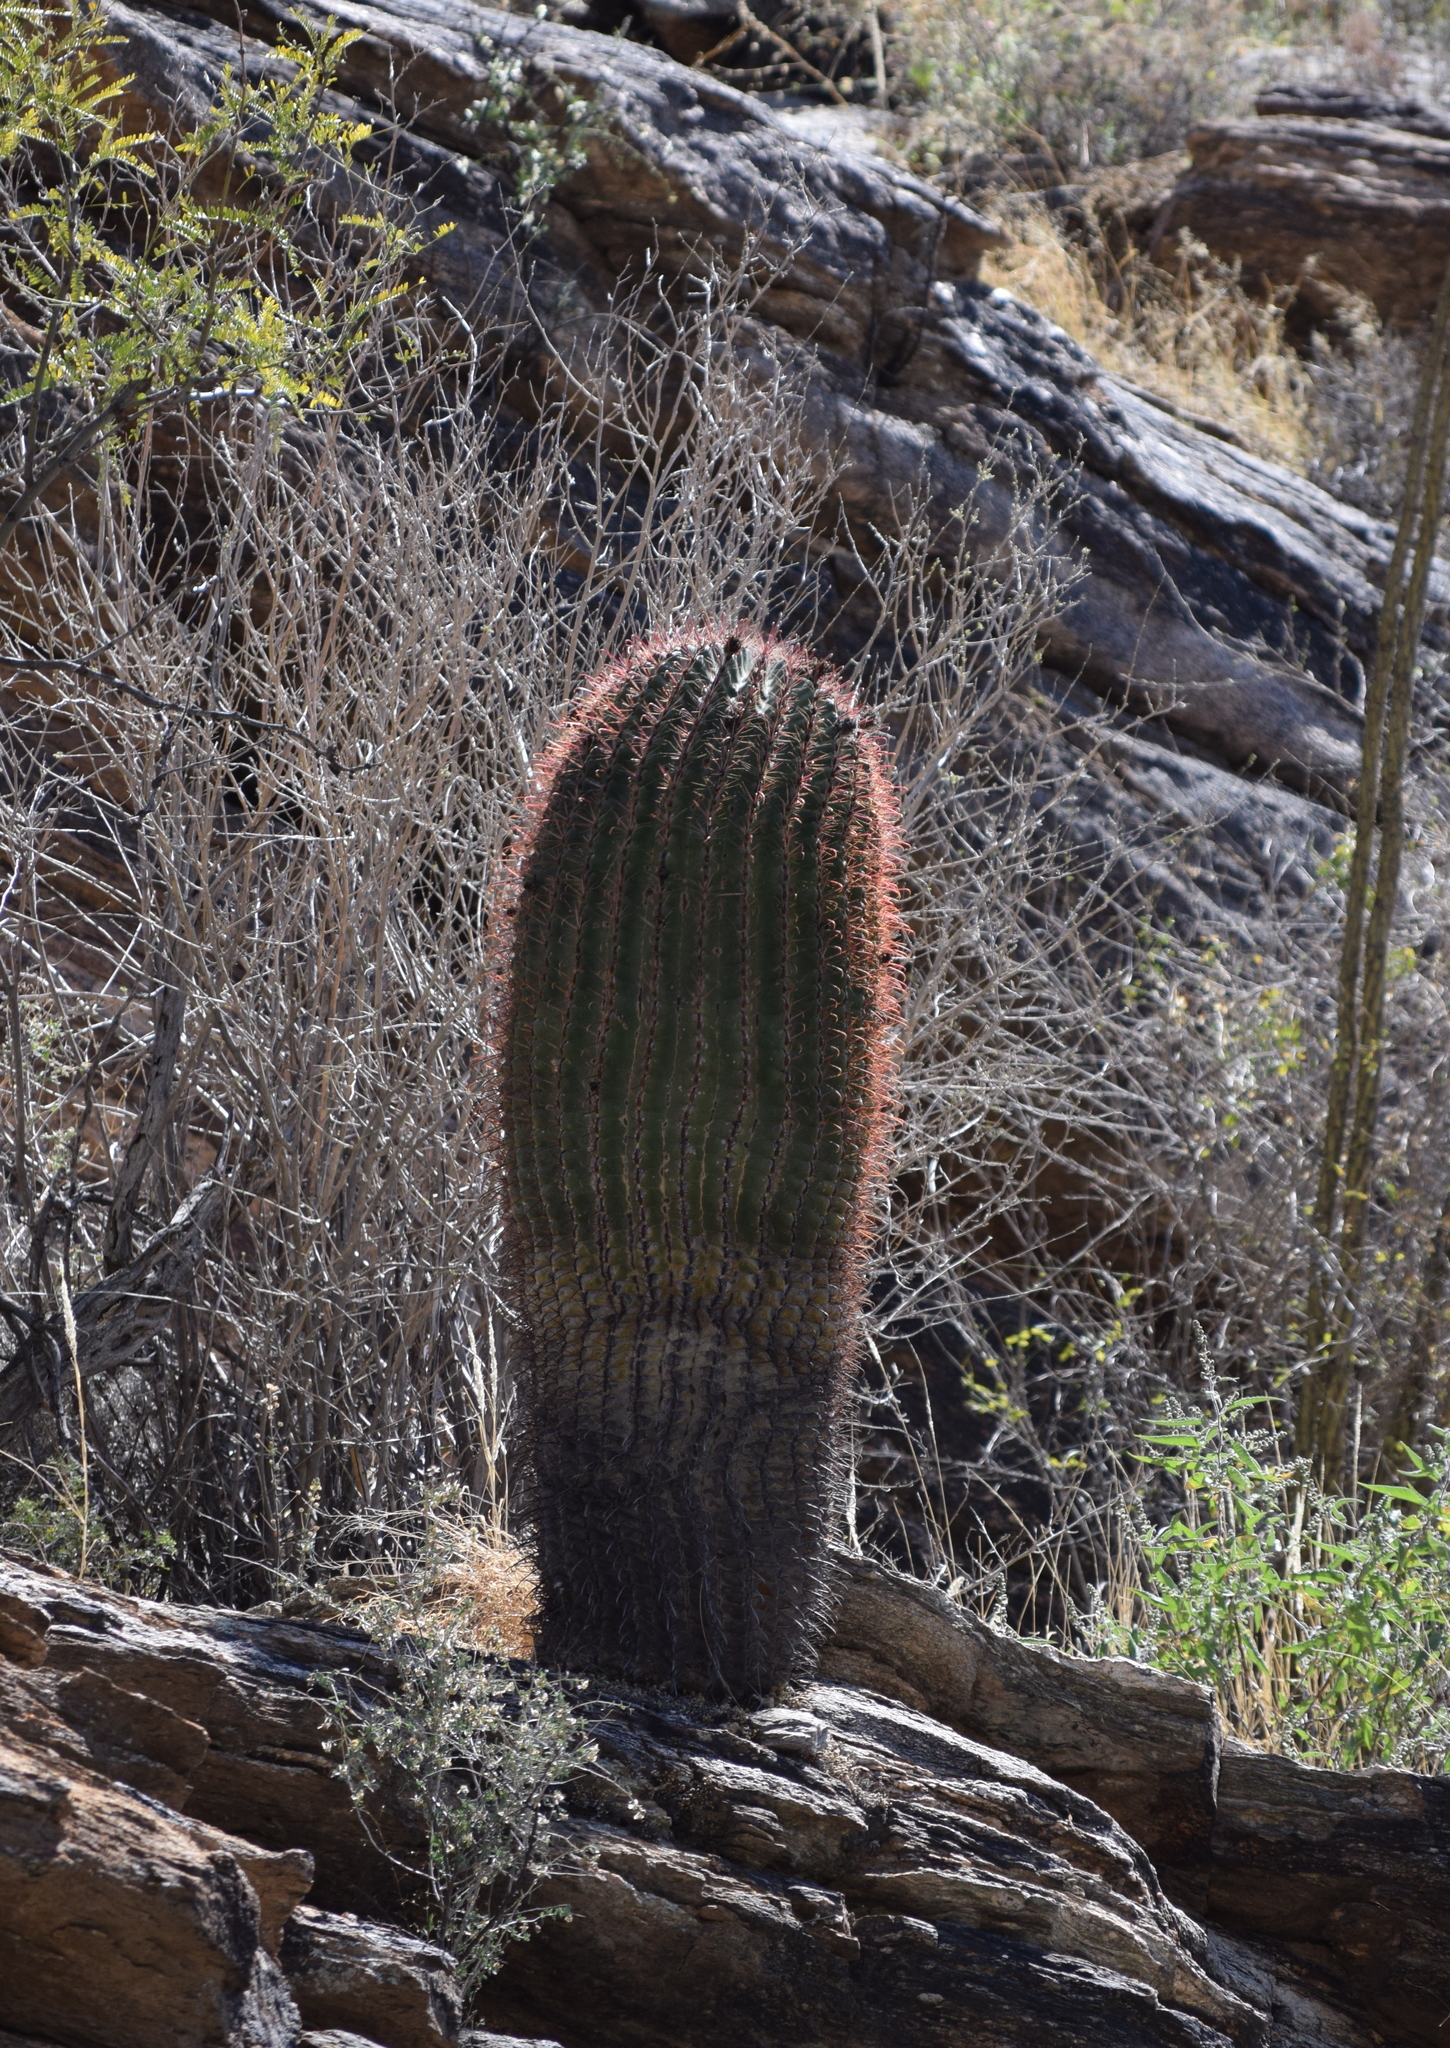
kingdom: Plantae
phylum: Tracheophyta
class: Magnoliopsida
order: Caryophyllales
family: Cactaceae
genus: Ferocactus
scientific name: Ferocactus wislizeni
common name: Candy barrel cactus
